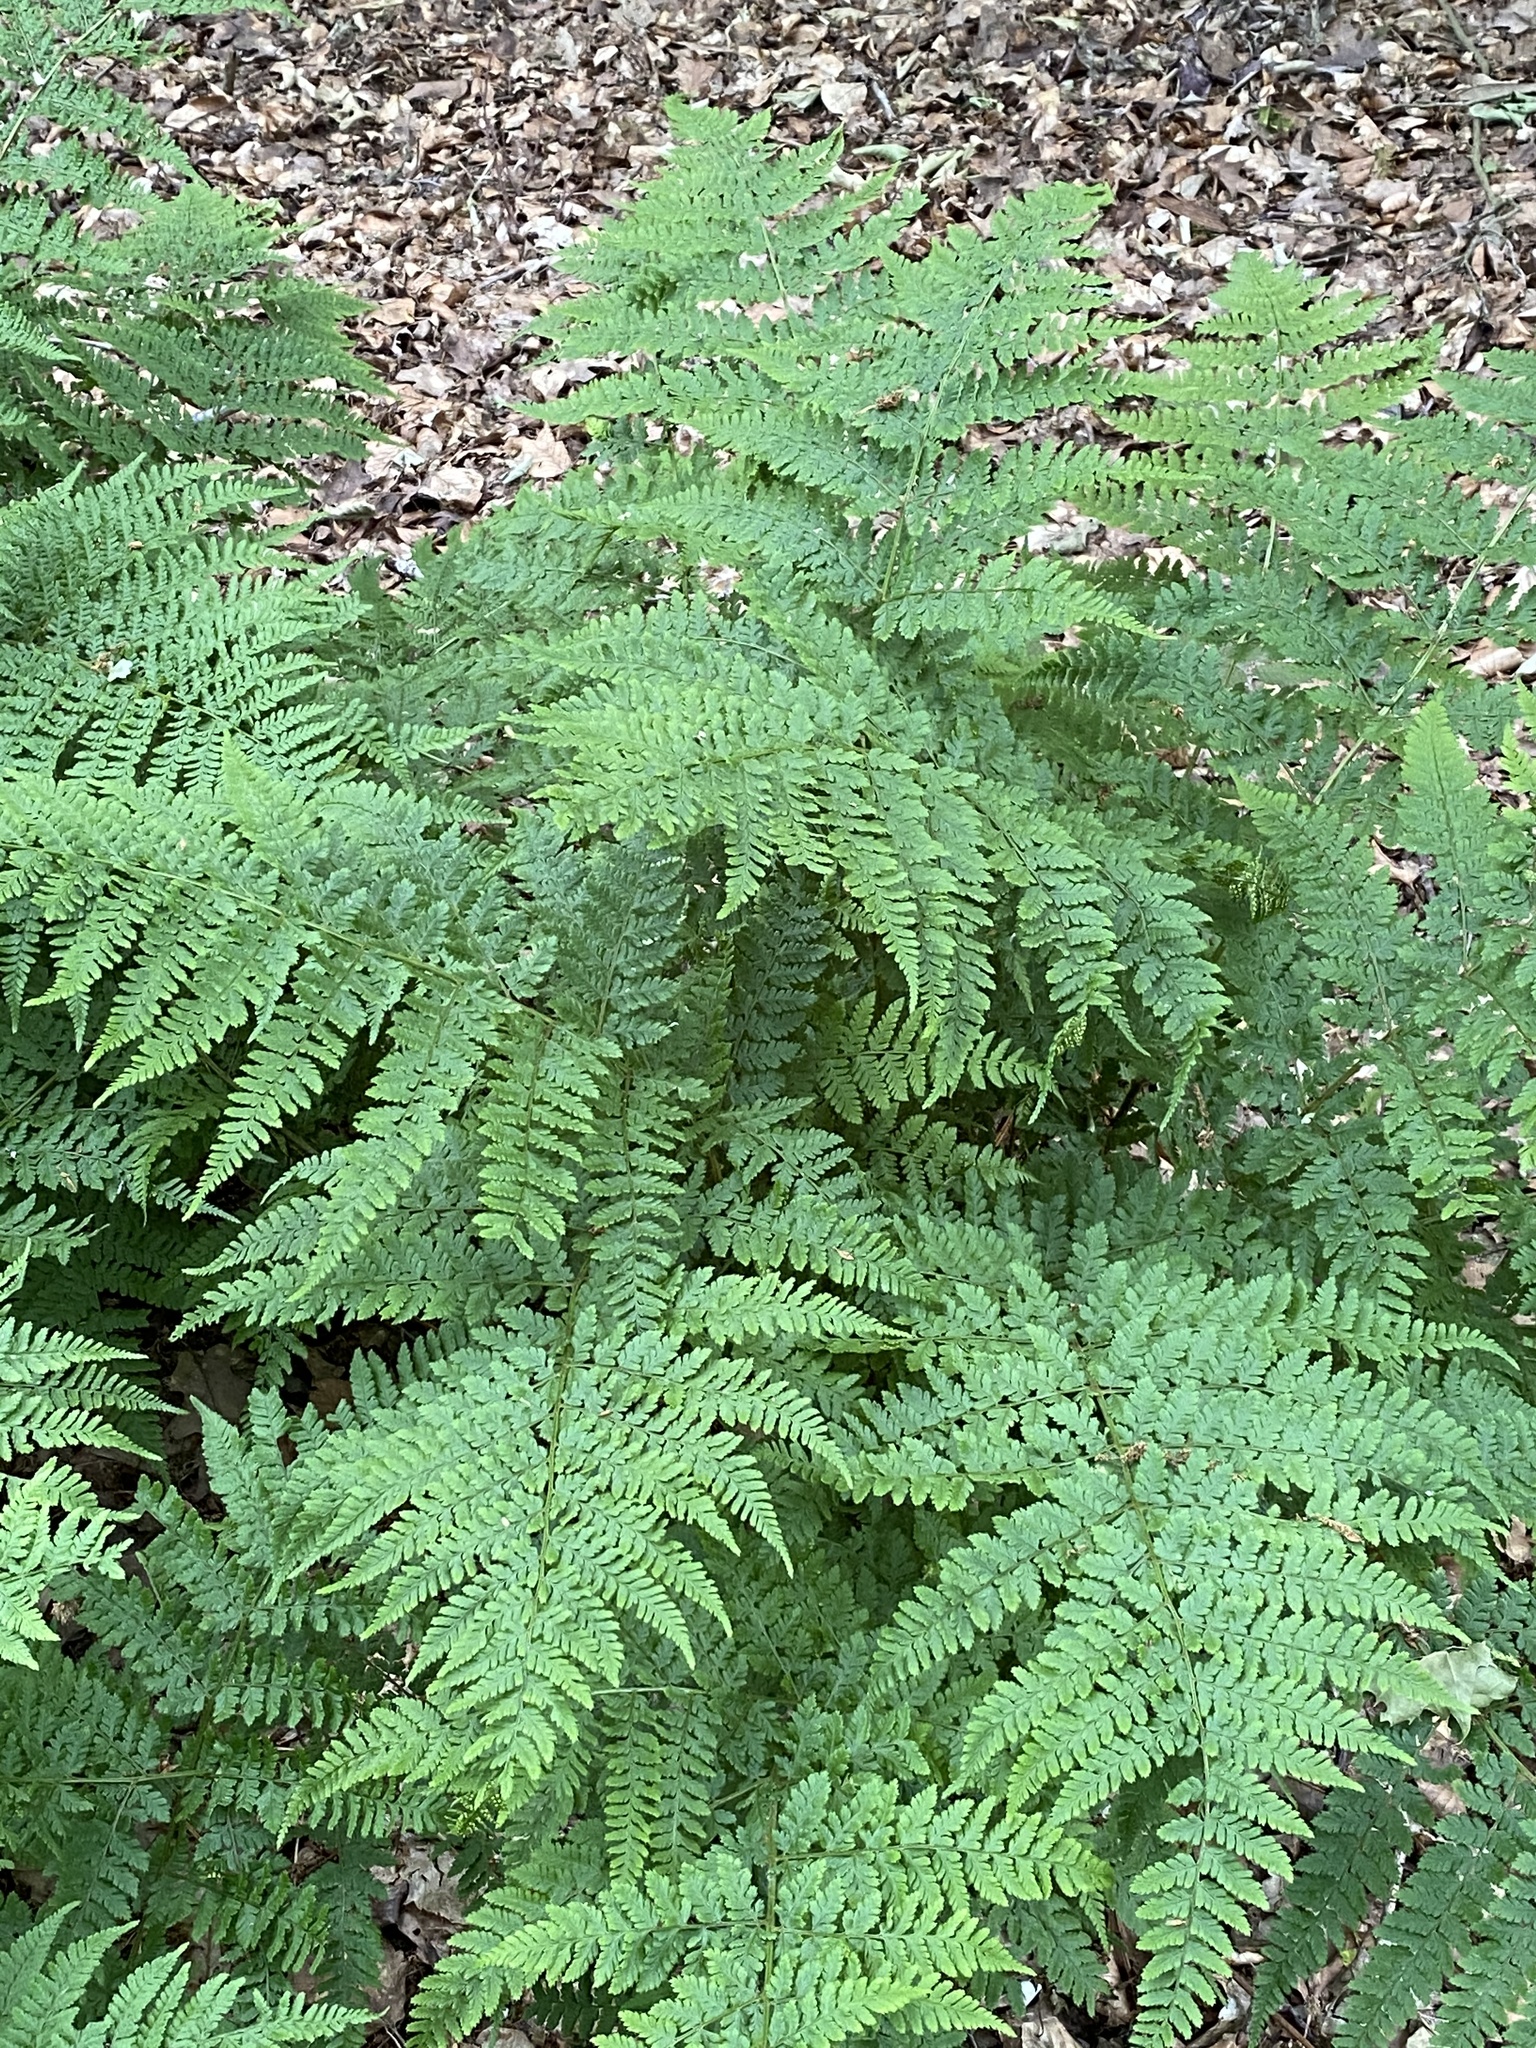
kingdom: Plantae
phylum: Tracheophyta
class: Polypodiopsida
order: Polypodiales
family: Dryopteridaceae
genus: Dryopteris
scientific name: Dryopteris dilatata
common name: Broad buckler-fern
